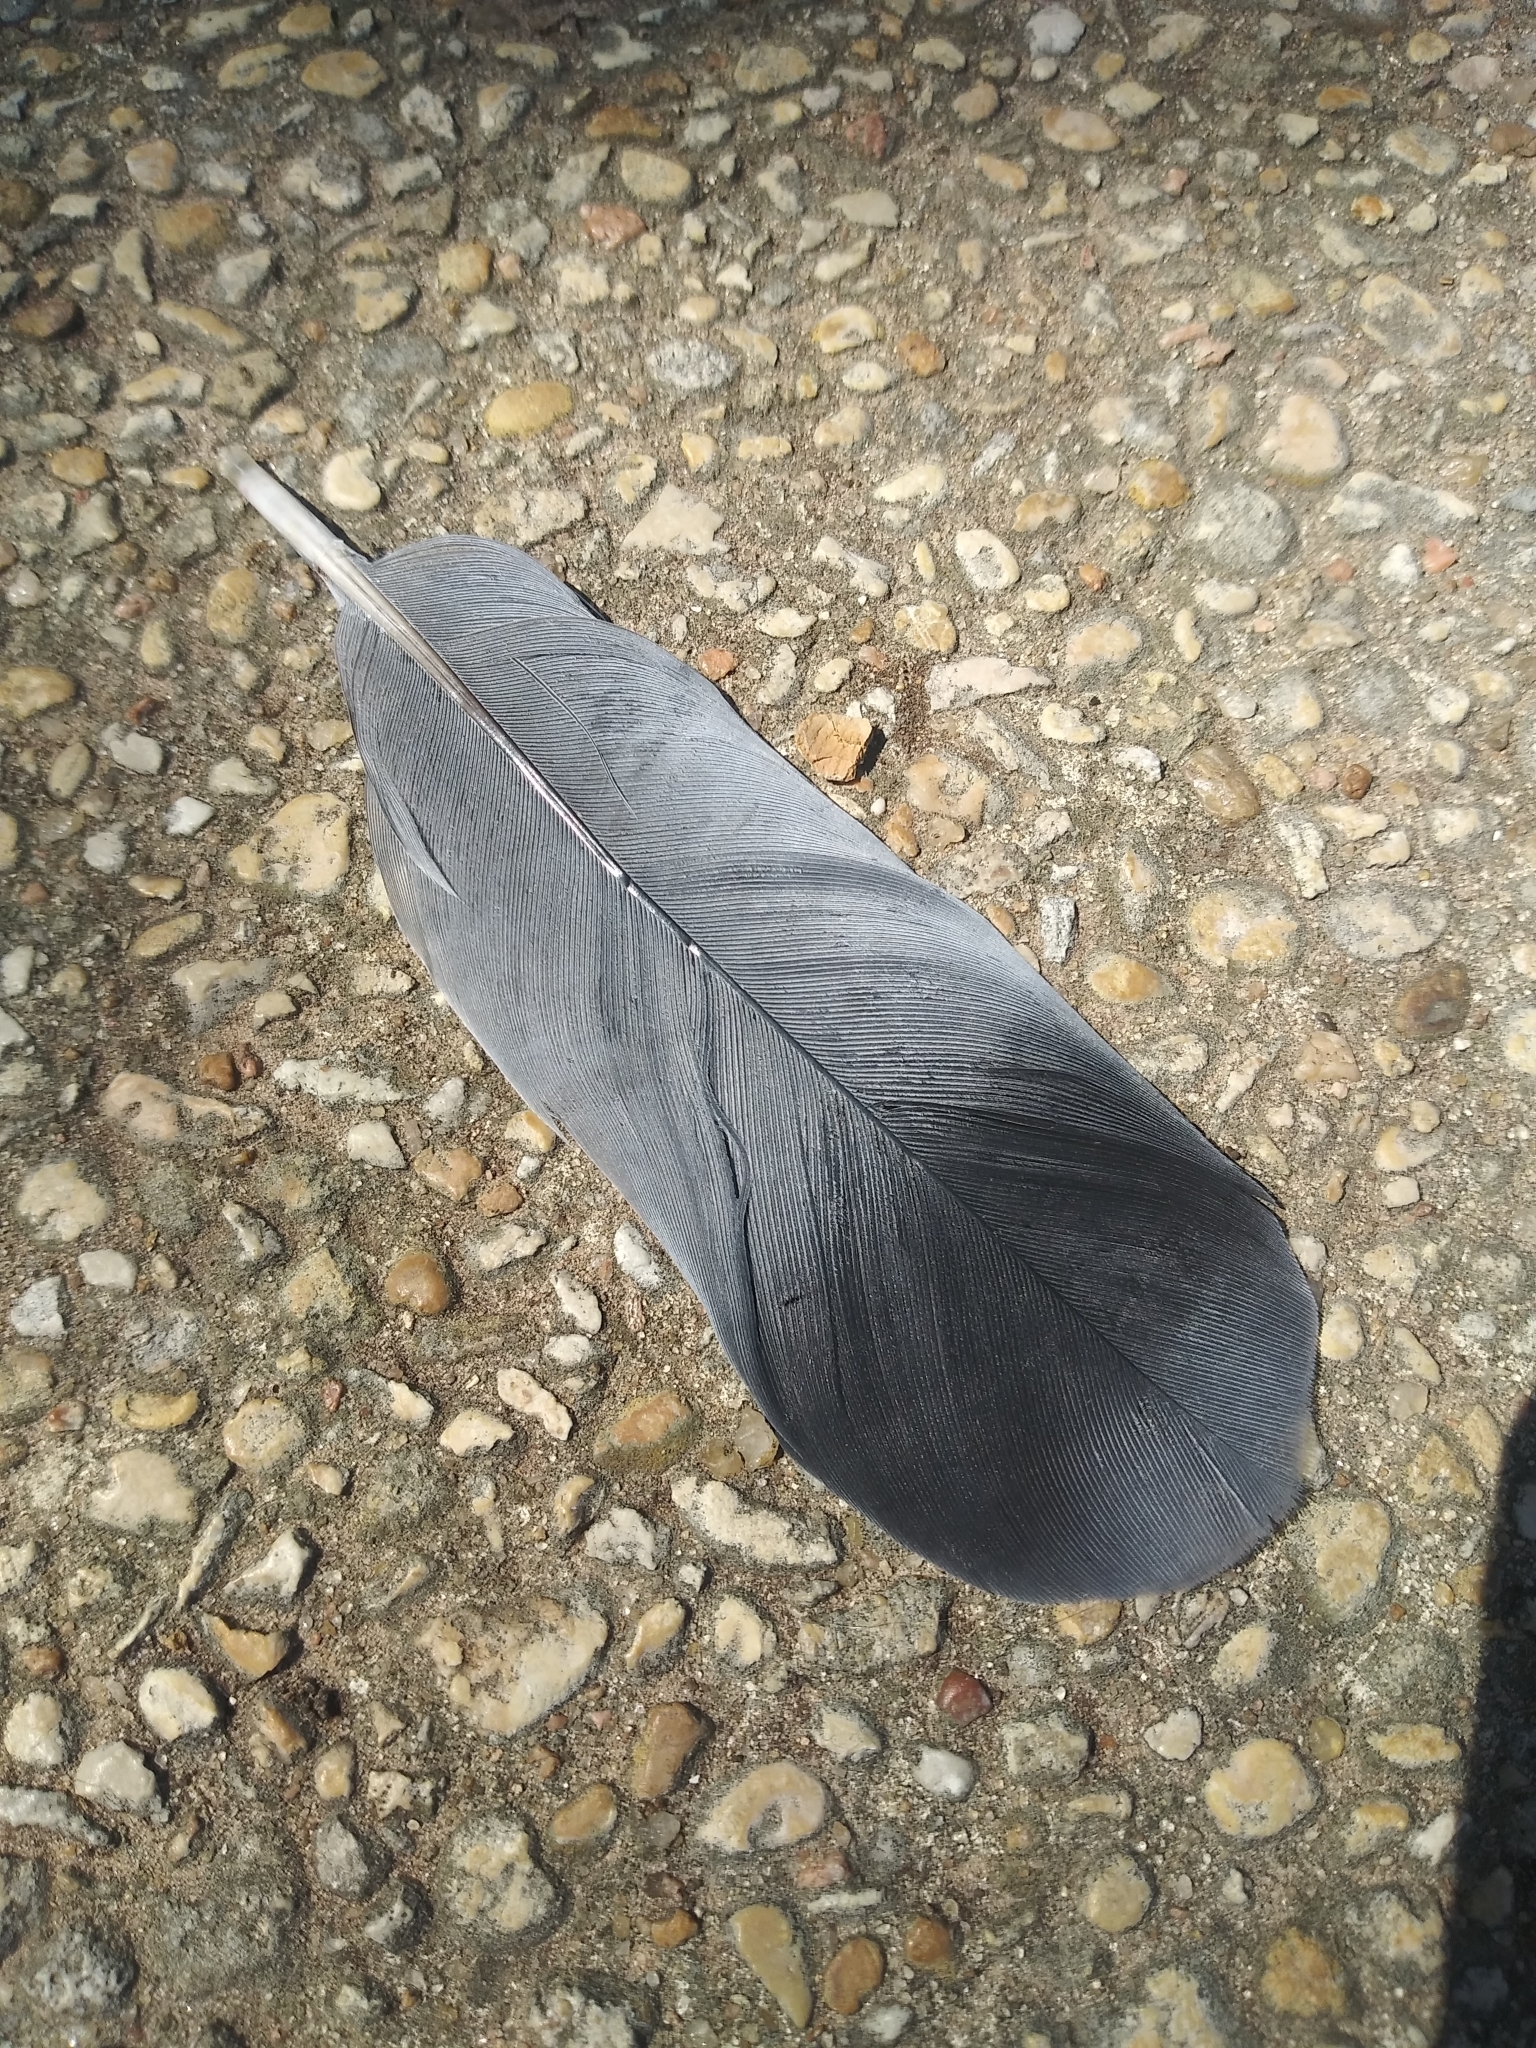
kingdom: Animalia
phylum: Chordata
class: Aves
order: Columbiformes
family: Columbidae
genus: Columba
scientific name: Columba livia
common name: Rock pigeon
